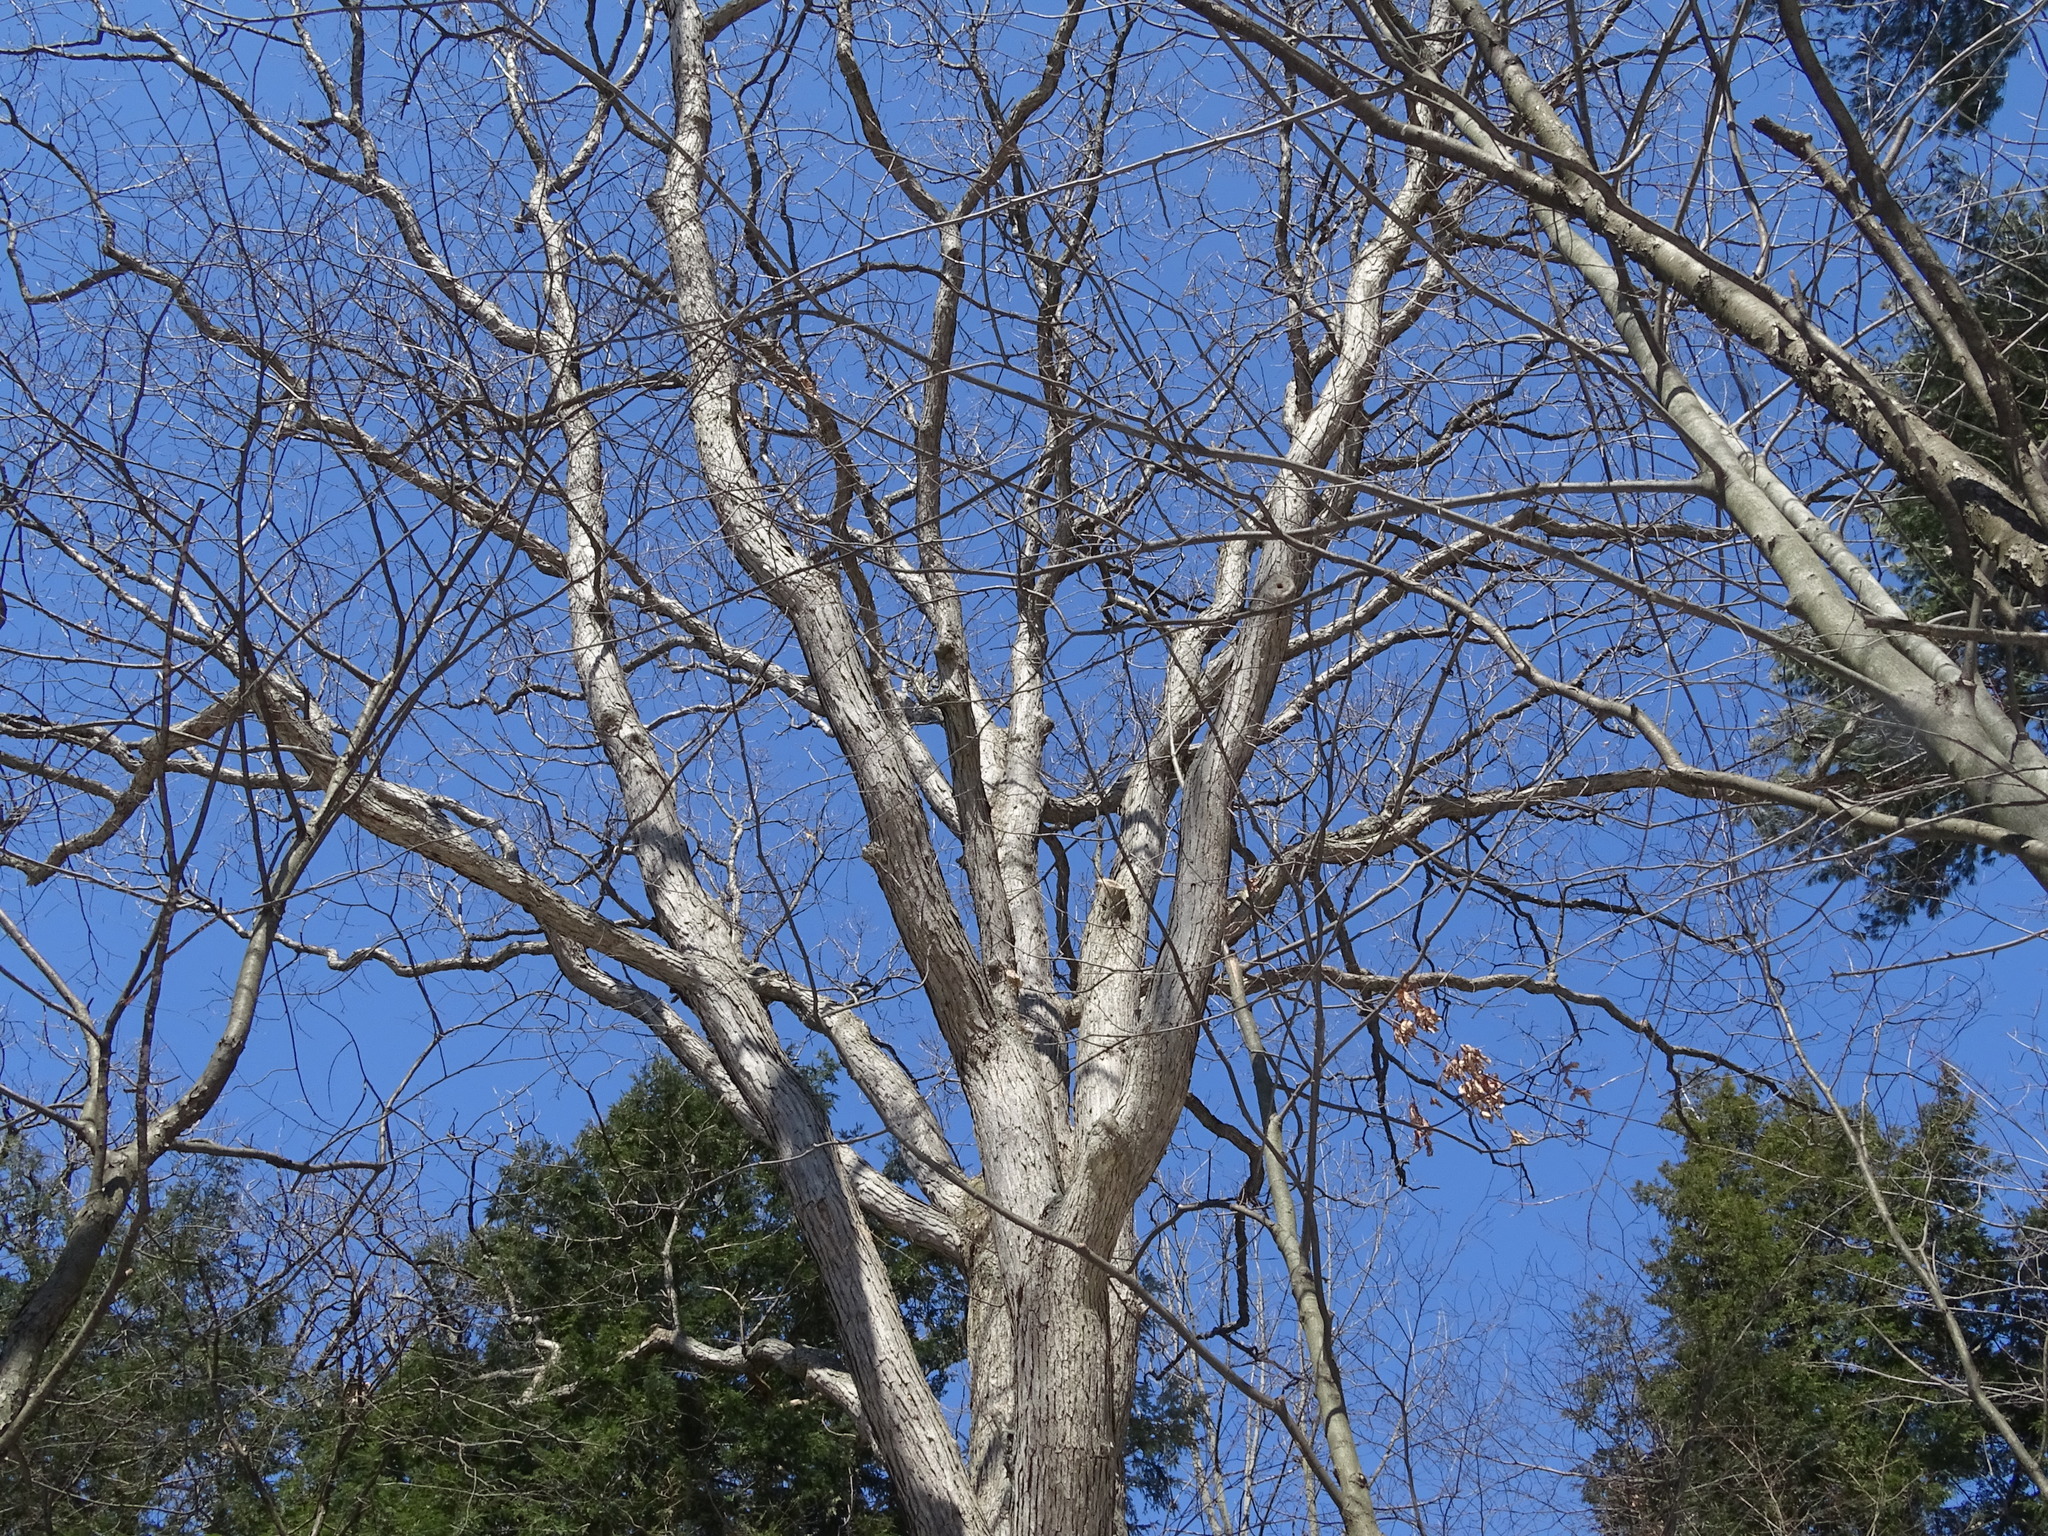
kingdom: Plantae
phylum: Tracheophyta
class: Magnoliopsida
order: Fagales
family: Fagaceae
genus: Quercus
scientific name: Quercus alba
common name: White oak
